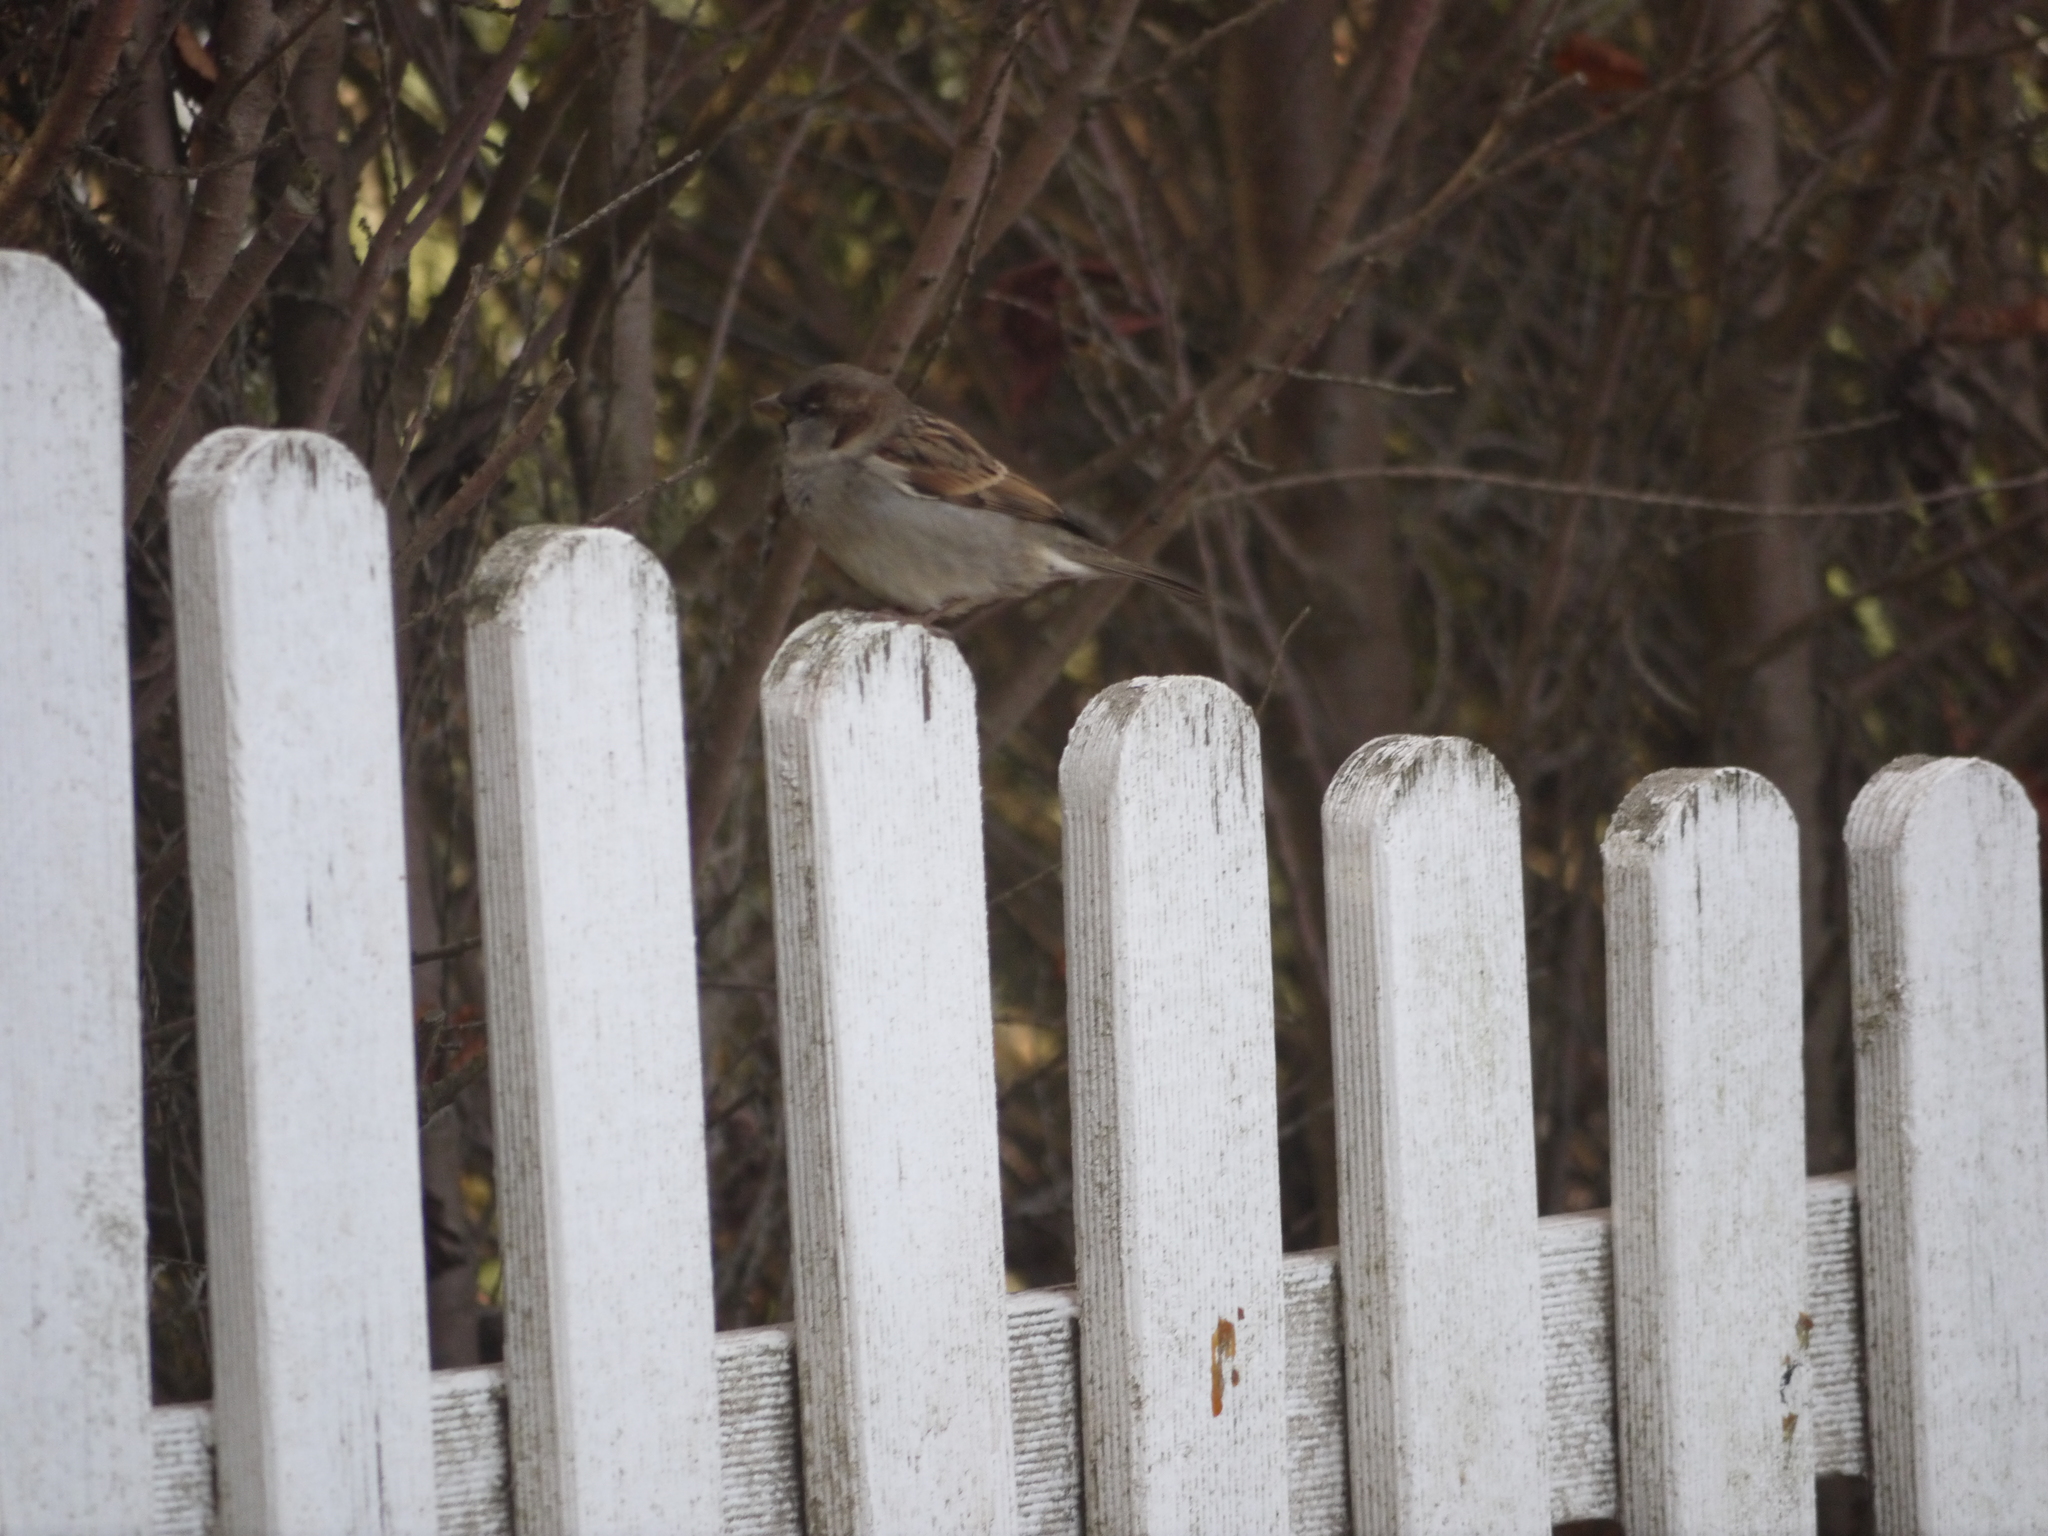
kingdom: Animalia
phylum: Chordata
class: Aves
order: Passeriformes
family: Passeridae
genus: Passer
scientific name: Passer domesticus
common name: House sparrow
